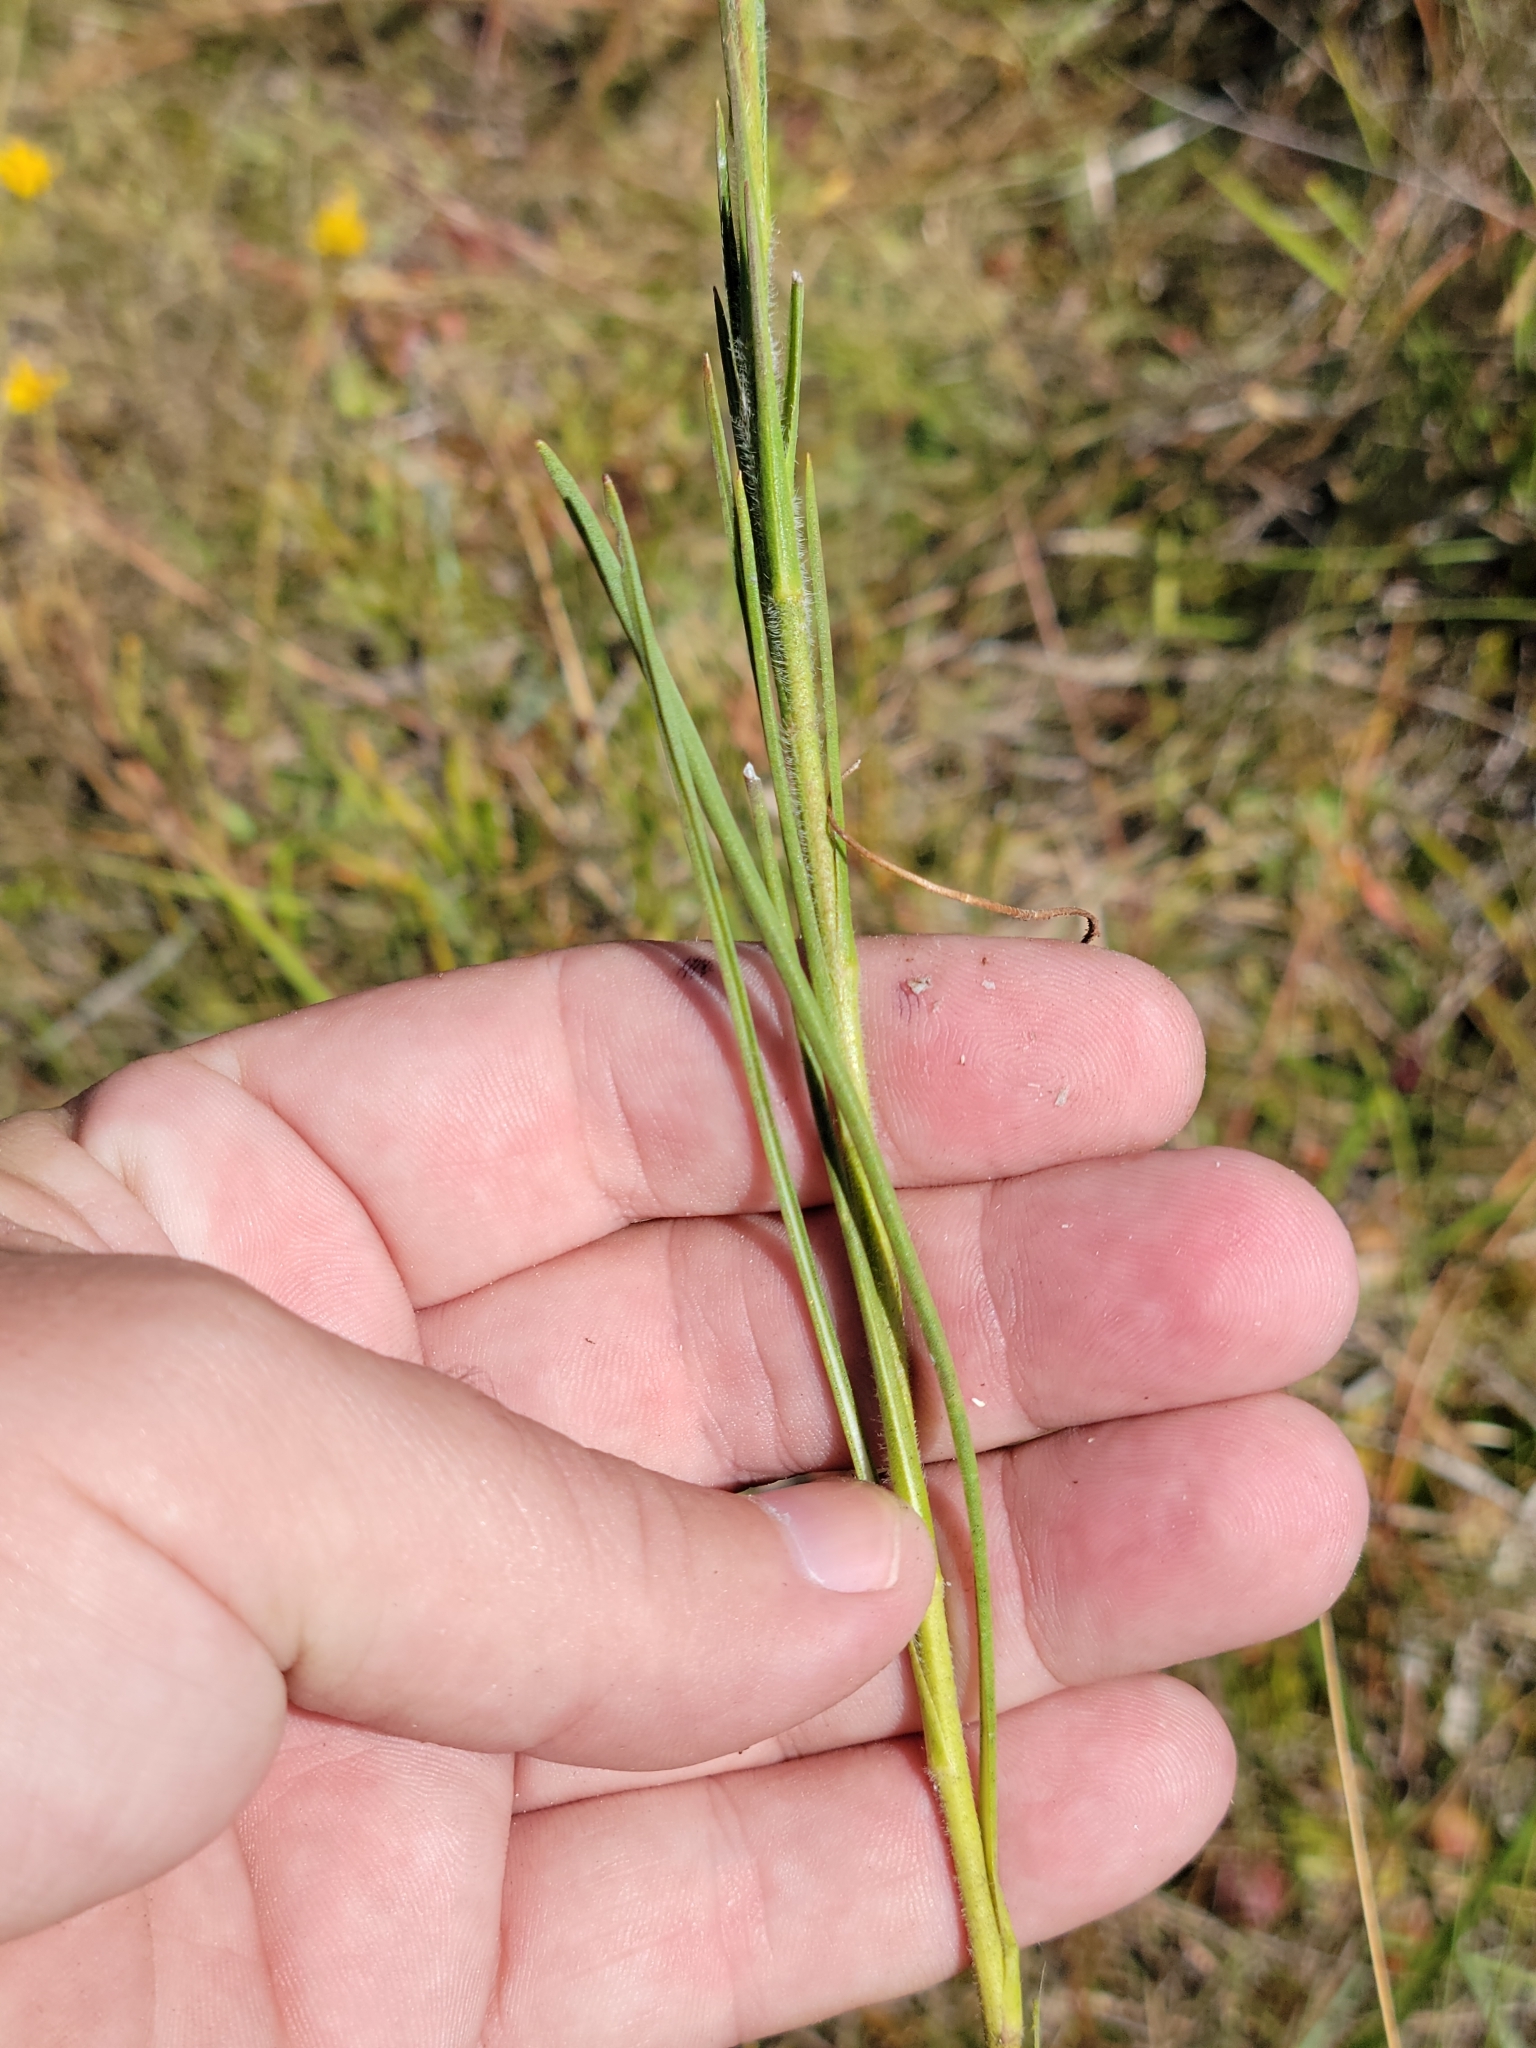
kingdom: Plantae
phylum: Tracheophyta
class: Magnoliopsida
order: Asterales
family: Asteraceae
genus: Carphephorus
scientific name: Carphephorus pseudoliatris
